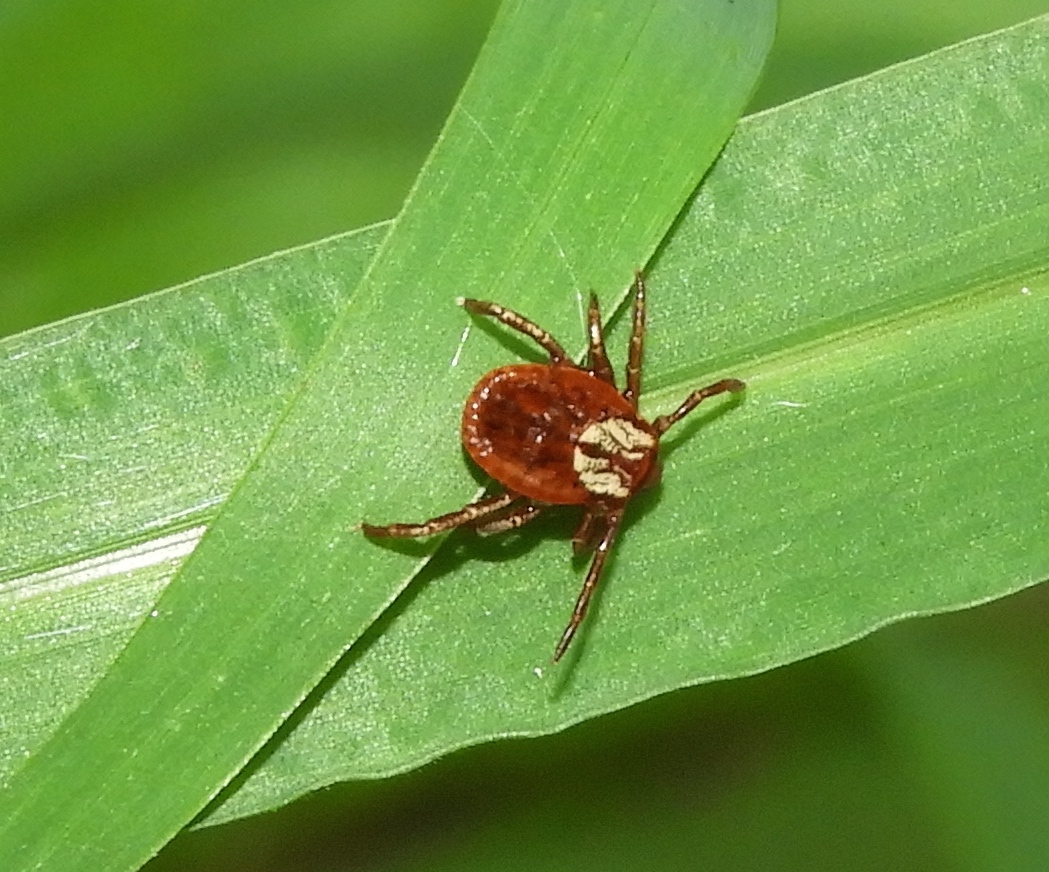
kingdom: Animalia
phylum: Arthropoda
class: Arachnida
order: Ixodida
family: Ixodidae
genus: Dermacentor
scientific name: Dermacentor
